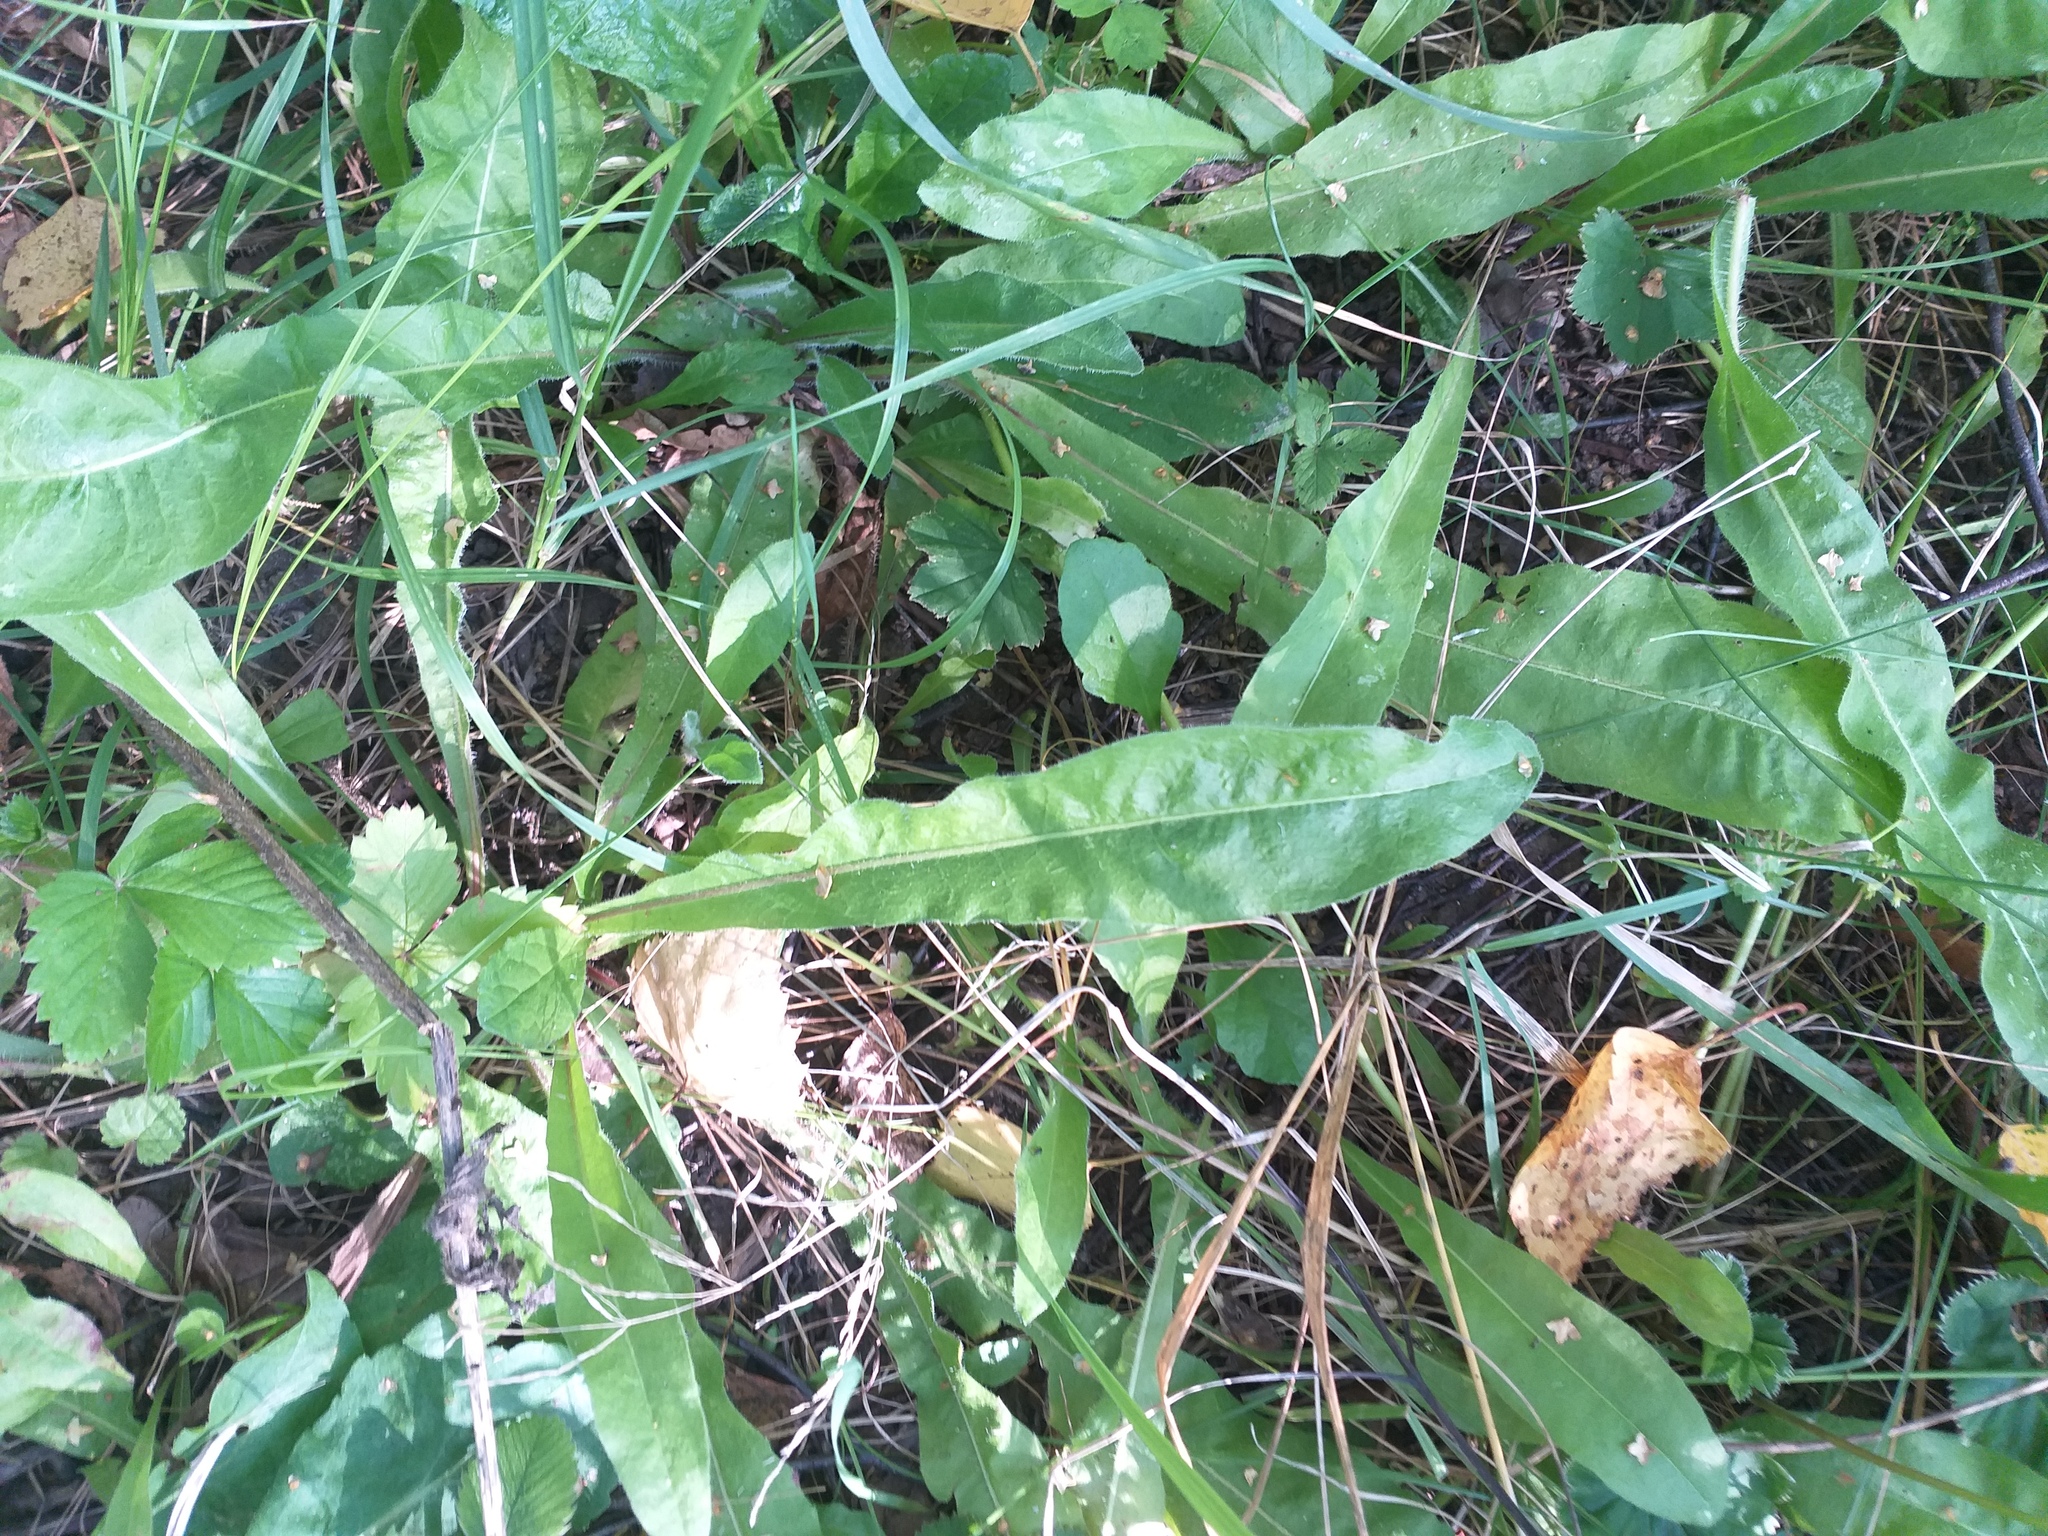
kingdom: Plantae
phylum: Tracheophyta
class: Magnoliopsida
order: Asterales
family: Asteraceae
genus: Picris
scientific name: Picris hieracioides
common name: Hawkweed oxtongue
